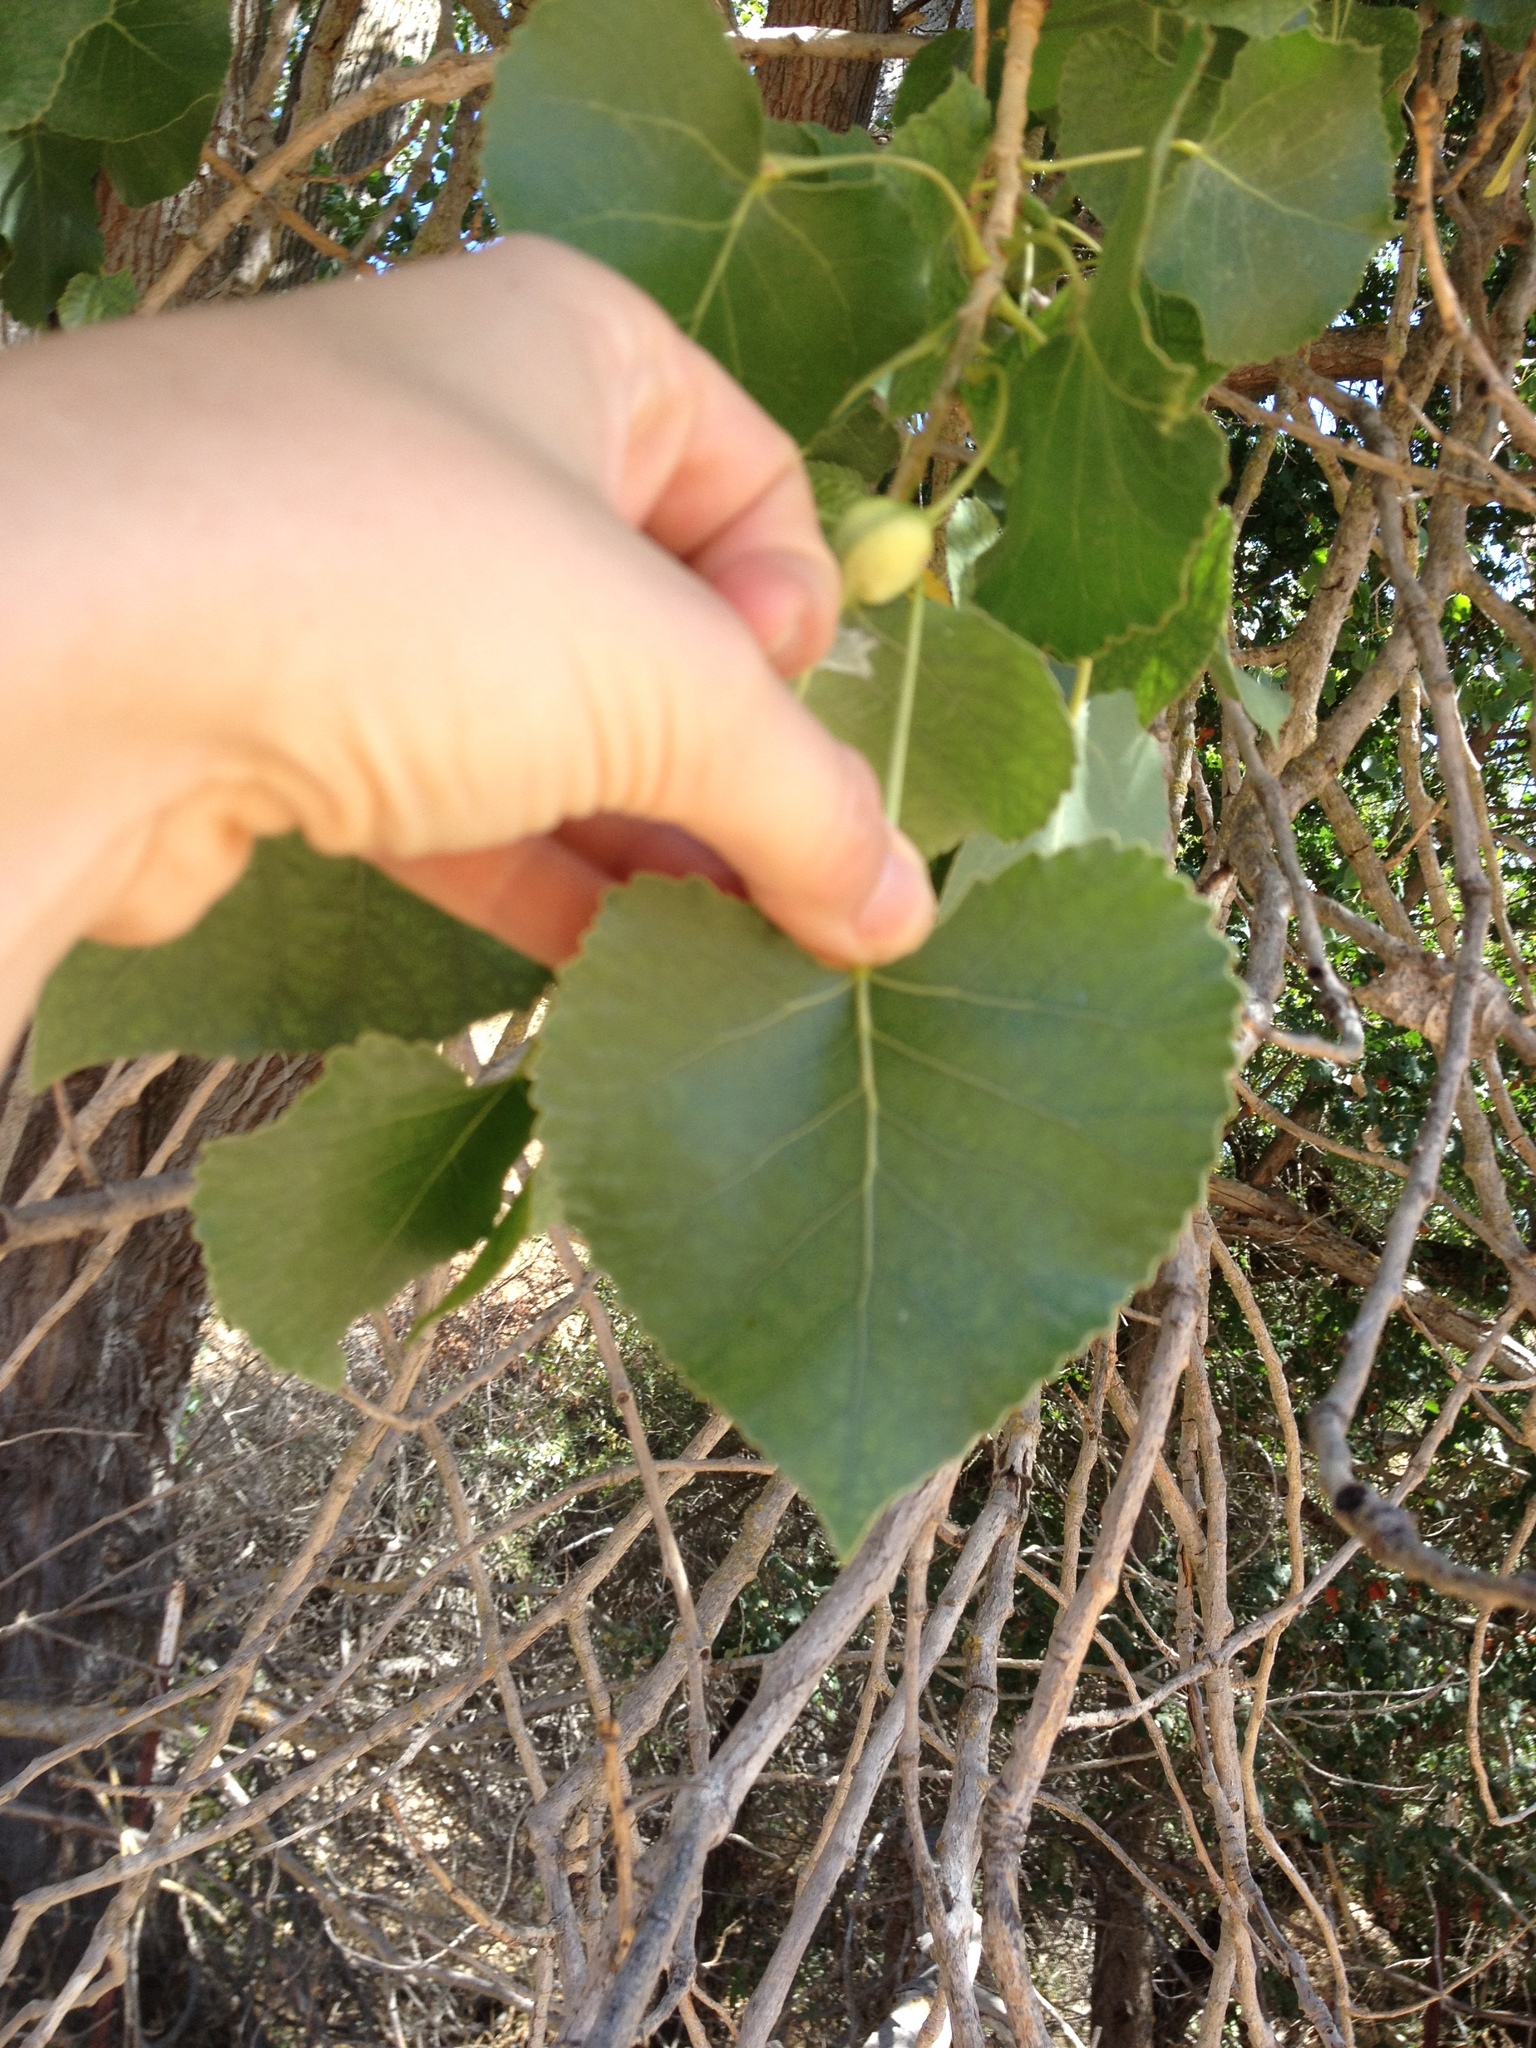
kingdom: Plantae
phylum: Tracheophyta
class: Magnoliopsida
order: Malpighiales
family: Salicaceae
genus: Populus
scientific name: Populus fremontii
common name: Fremont's cottonwood
